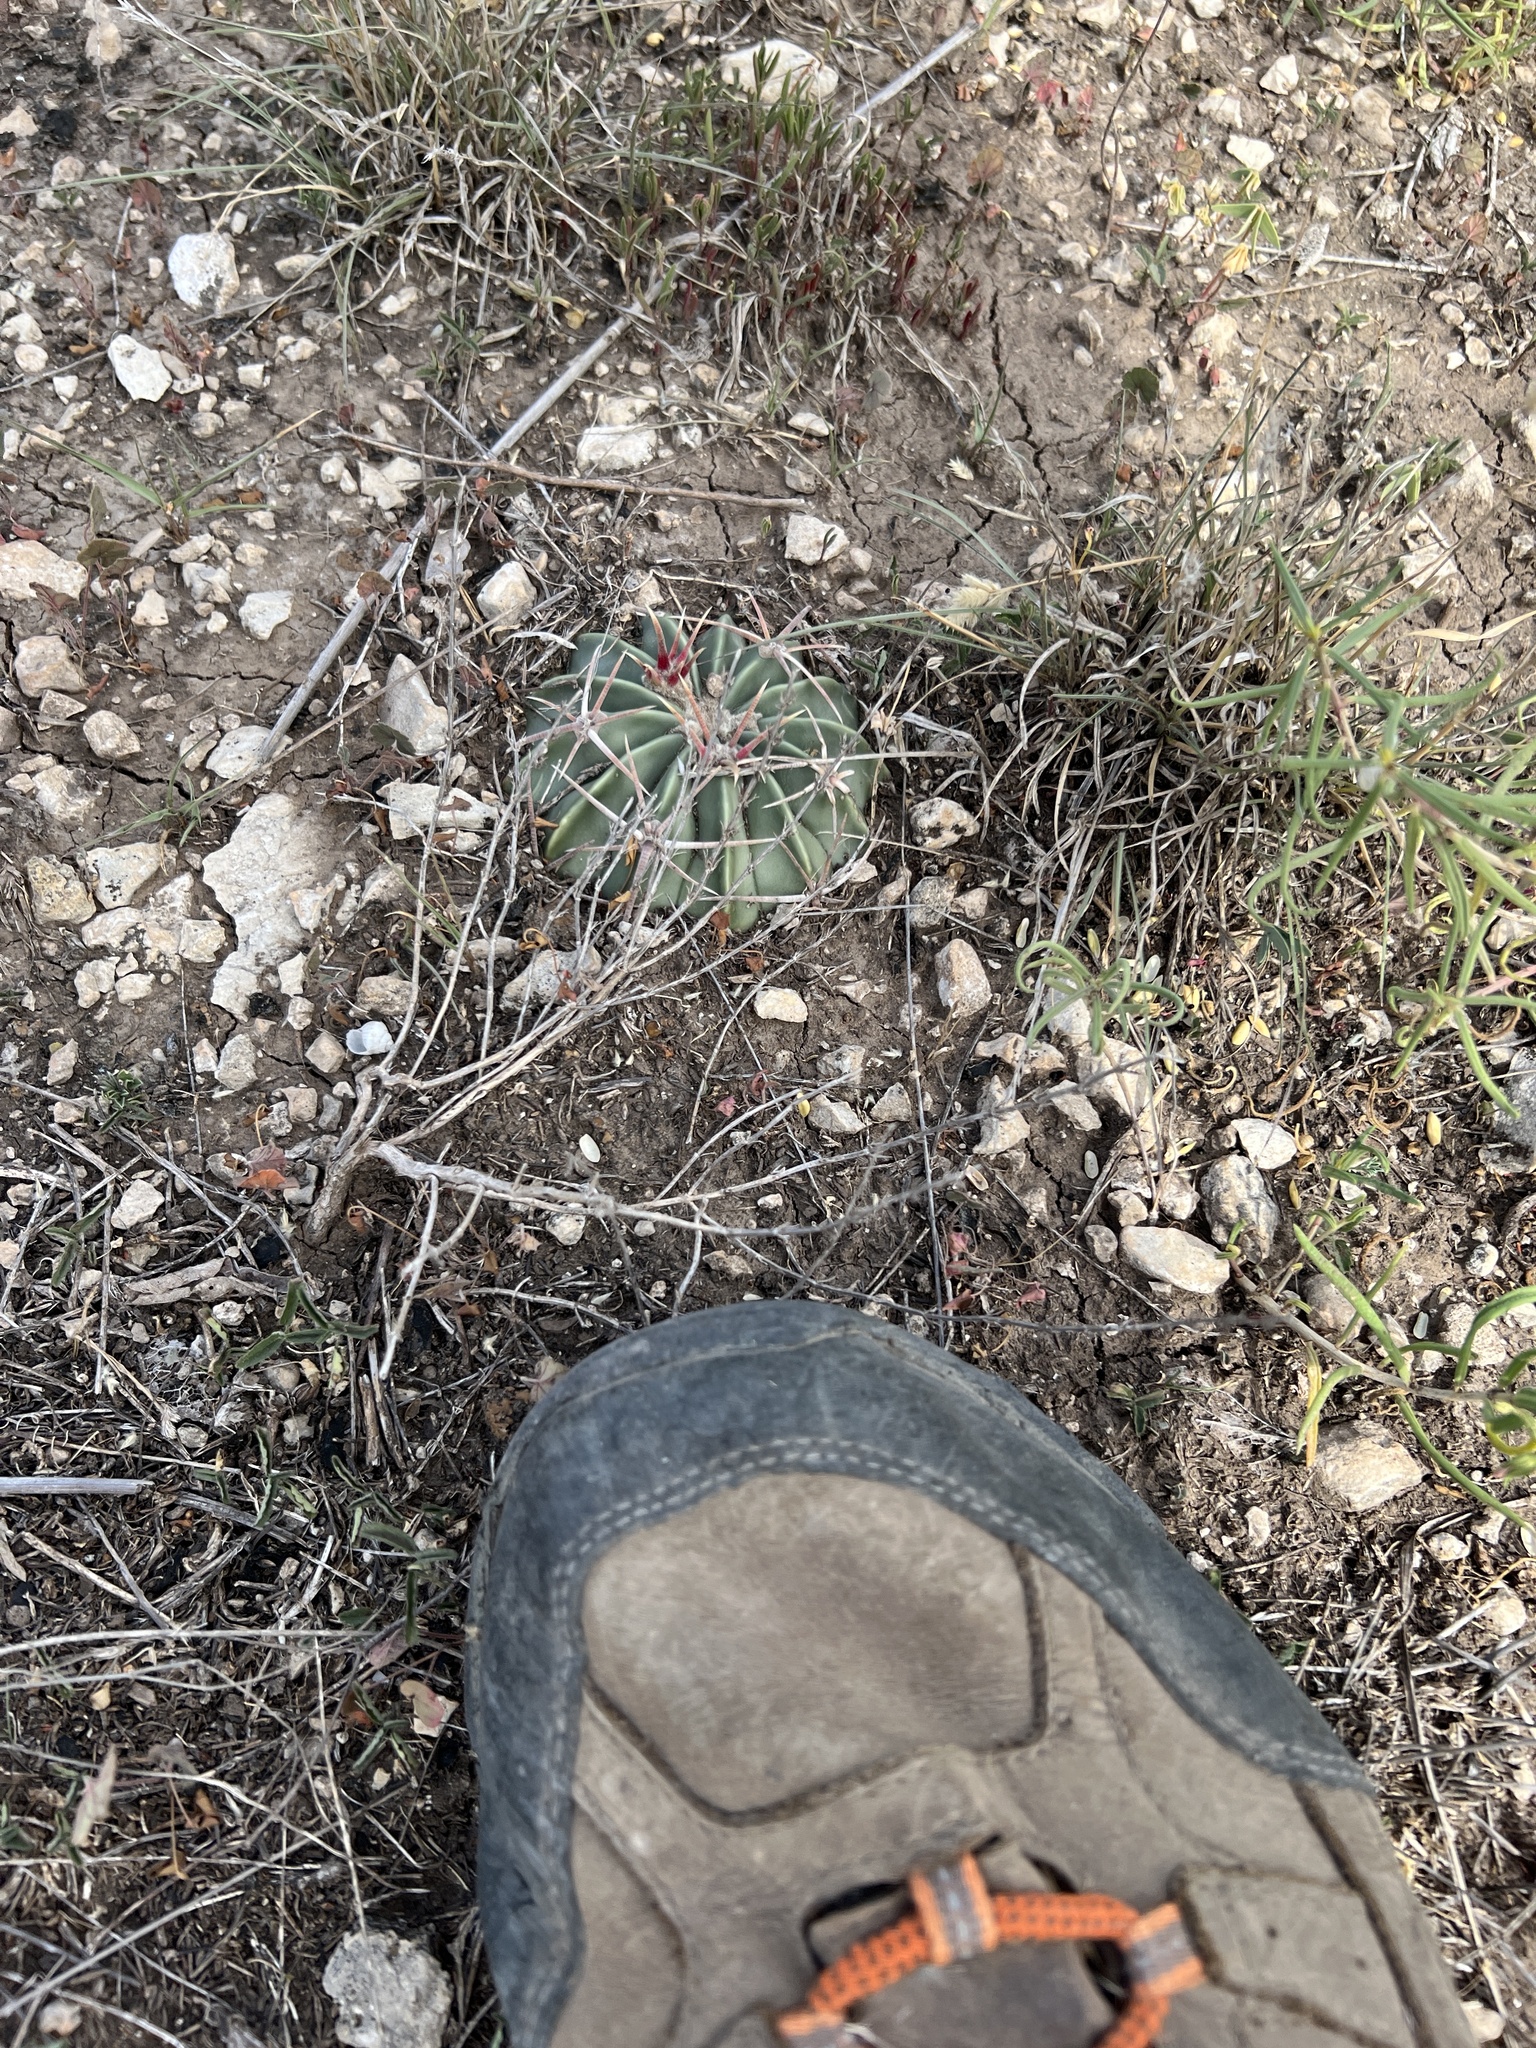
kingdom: Plantae
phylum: Tracheophyta
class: Magnoliopsida
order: Caryophyllales
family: Cactaceae
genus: Echinocactus
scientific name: Echinocactus texensis
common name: Devil's pincushion
